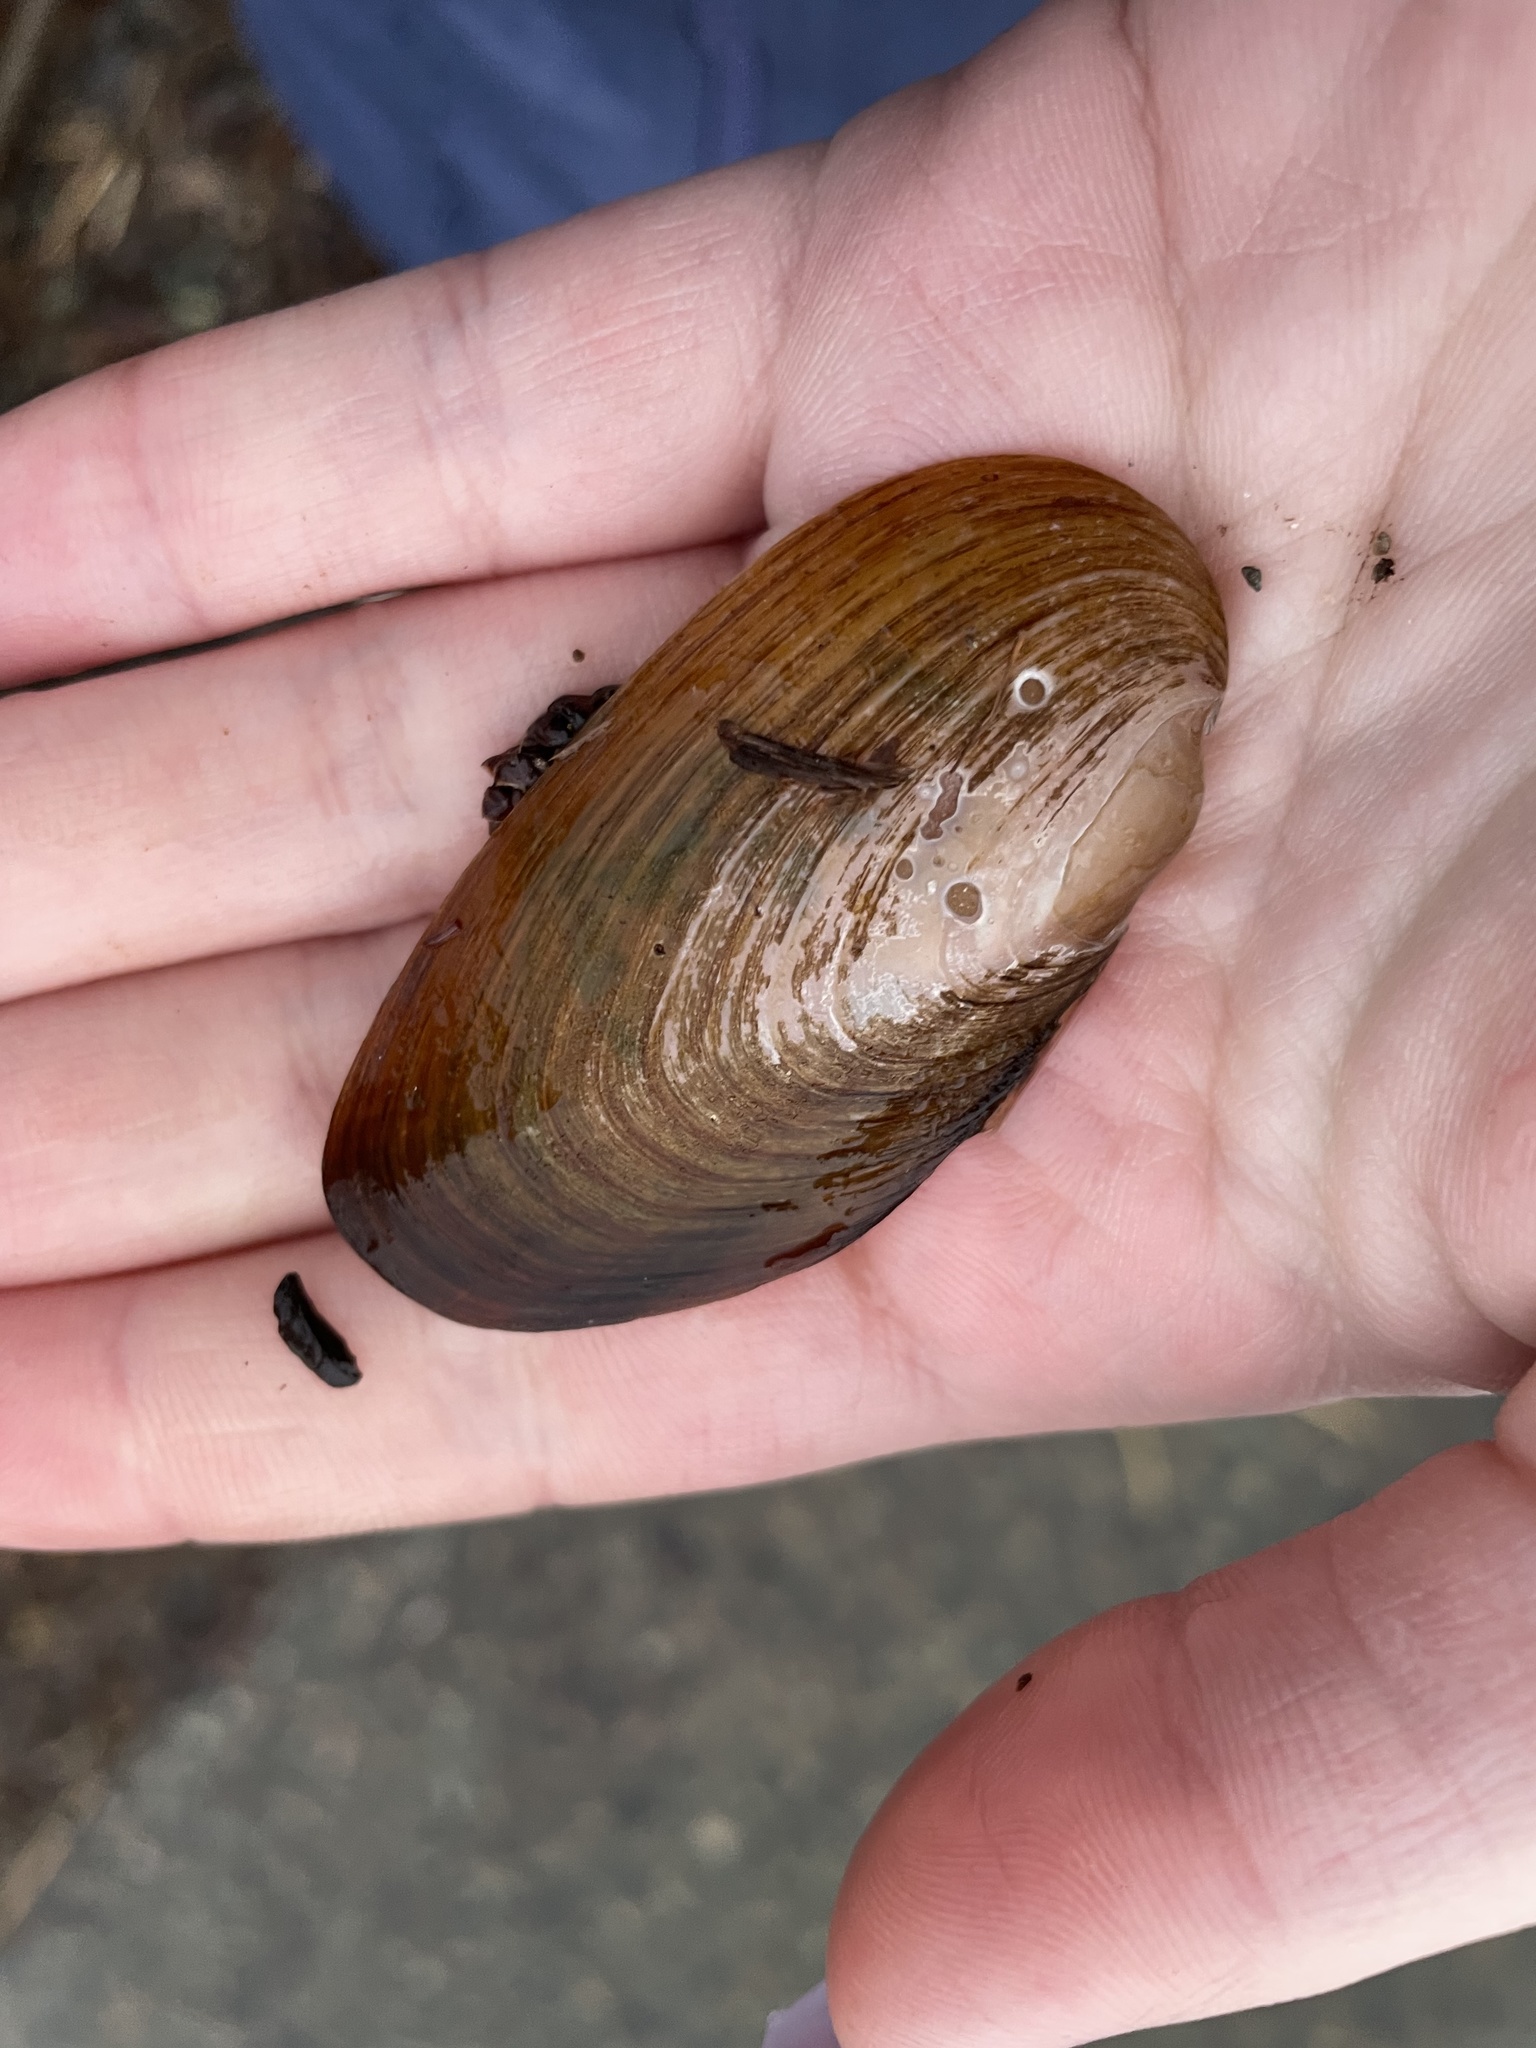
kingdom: Animalia
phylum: Mollusca
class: Bivalvia
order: Unionida
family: Unionidae
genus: Elliptio
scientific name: Elliptio complanata
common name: Eastern elliptio
